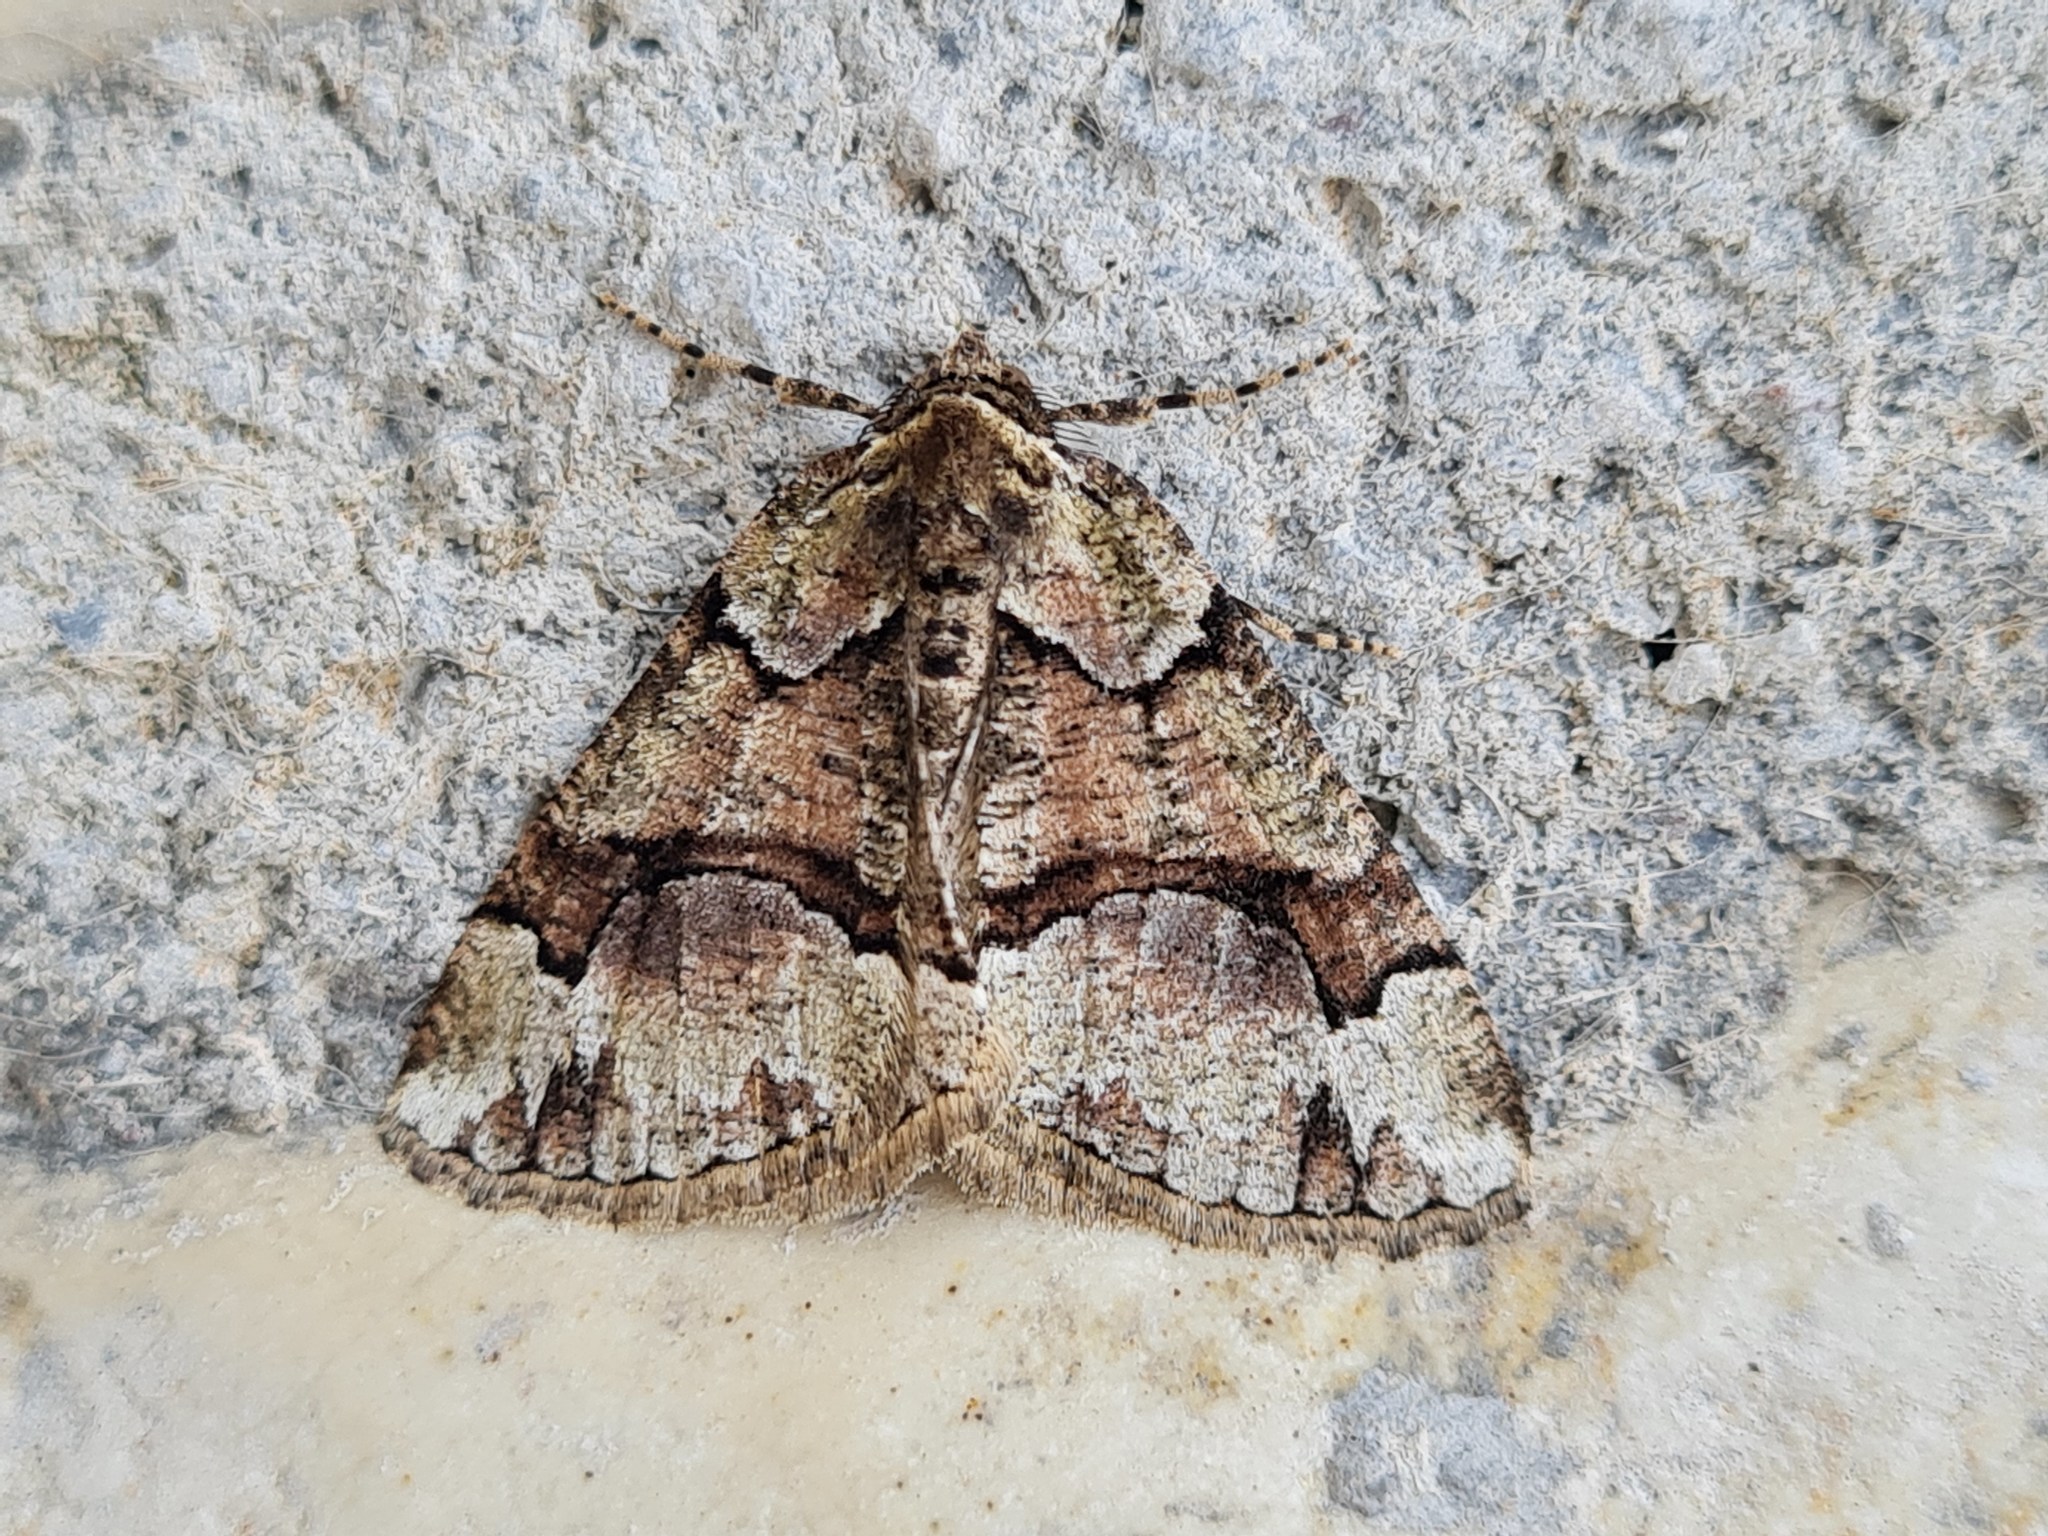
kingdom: Animalia
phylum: Arthropoda
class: Insecta
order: Lepidoptera
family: Geometridae
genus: Asovia
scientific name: Asovia maeoticaria
